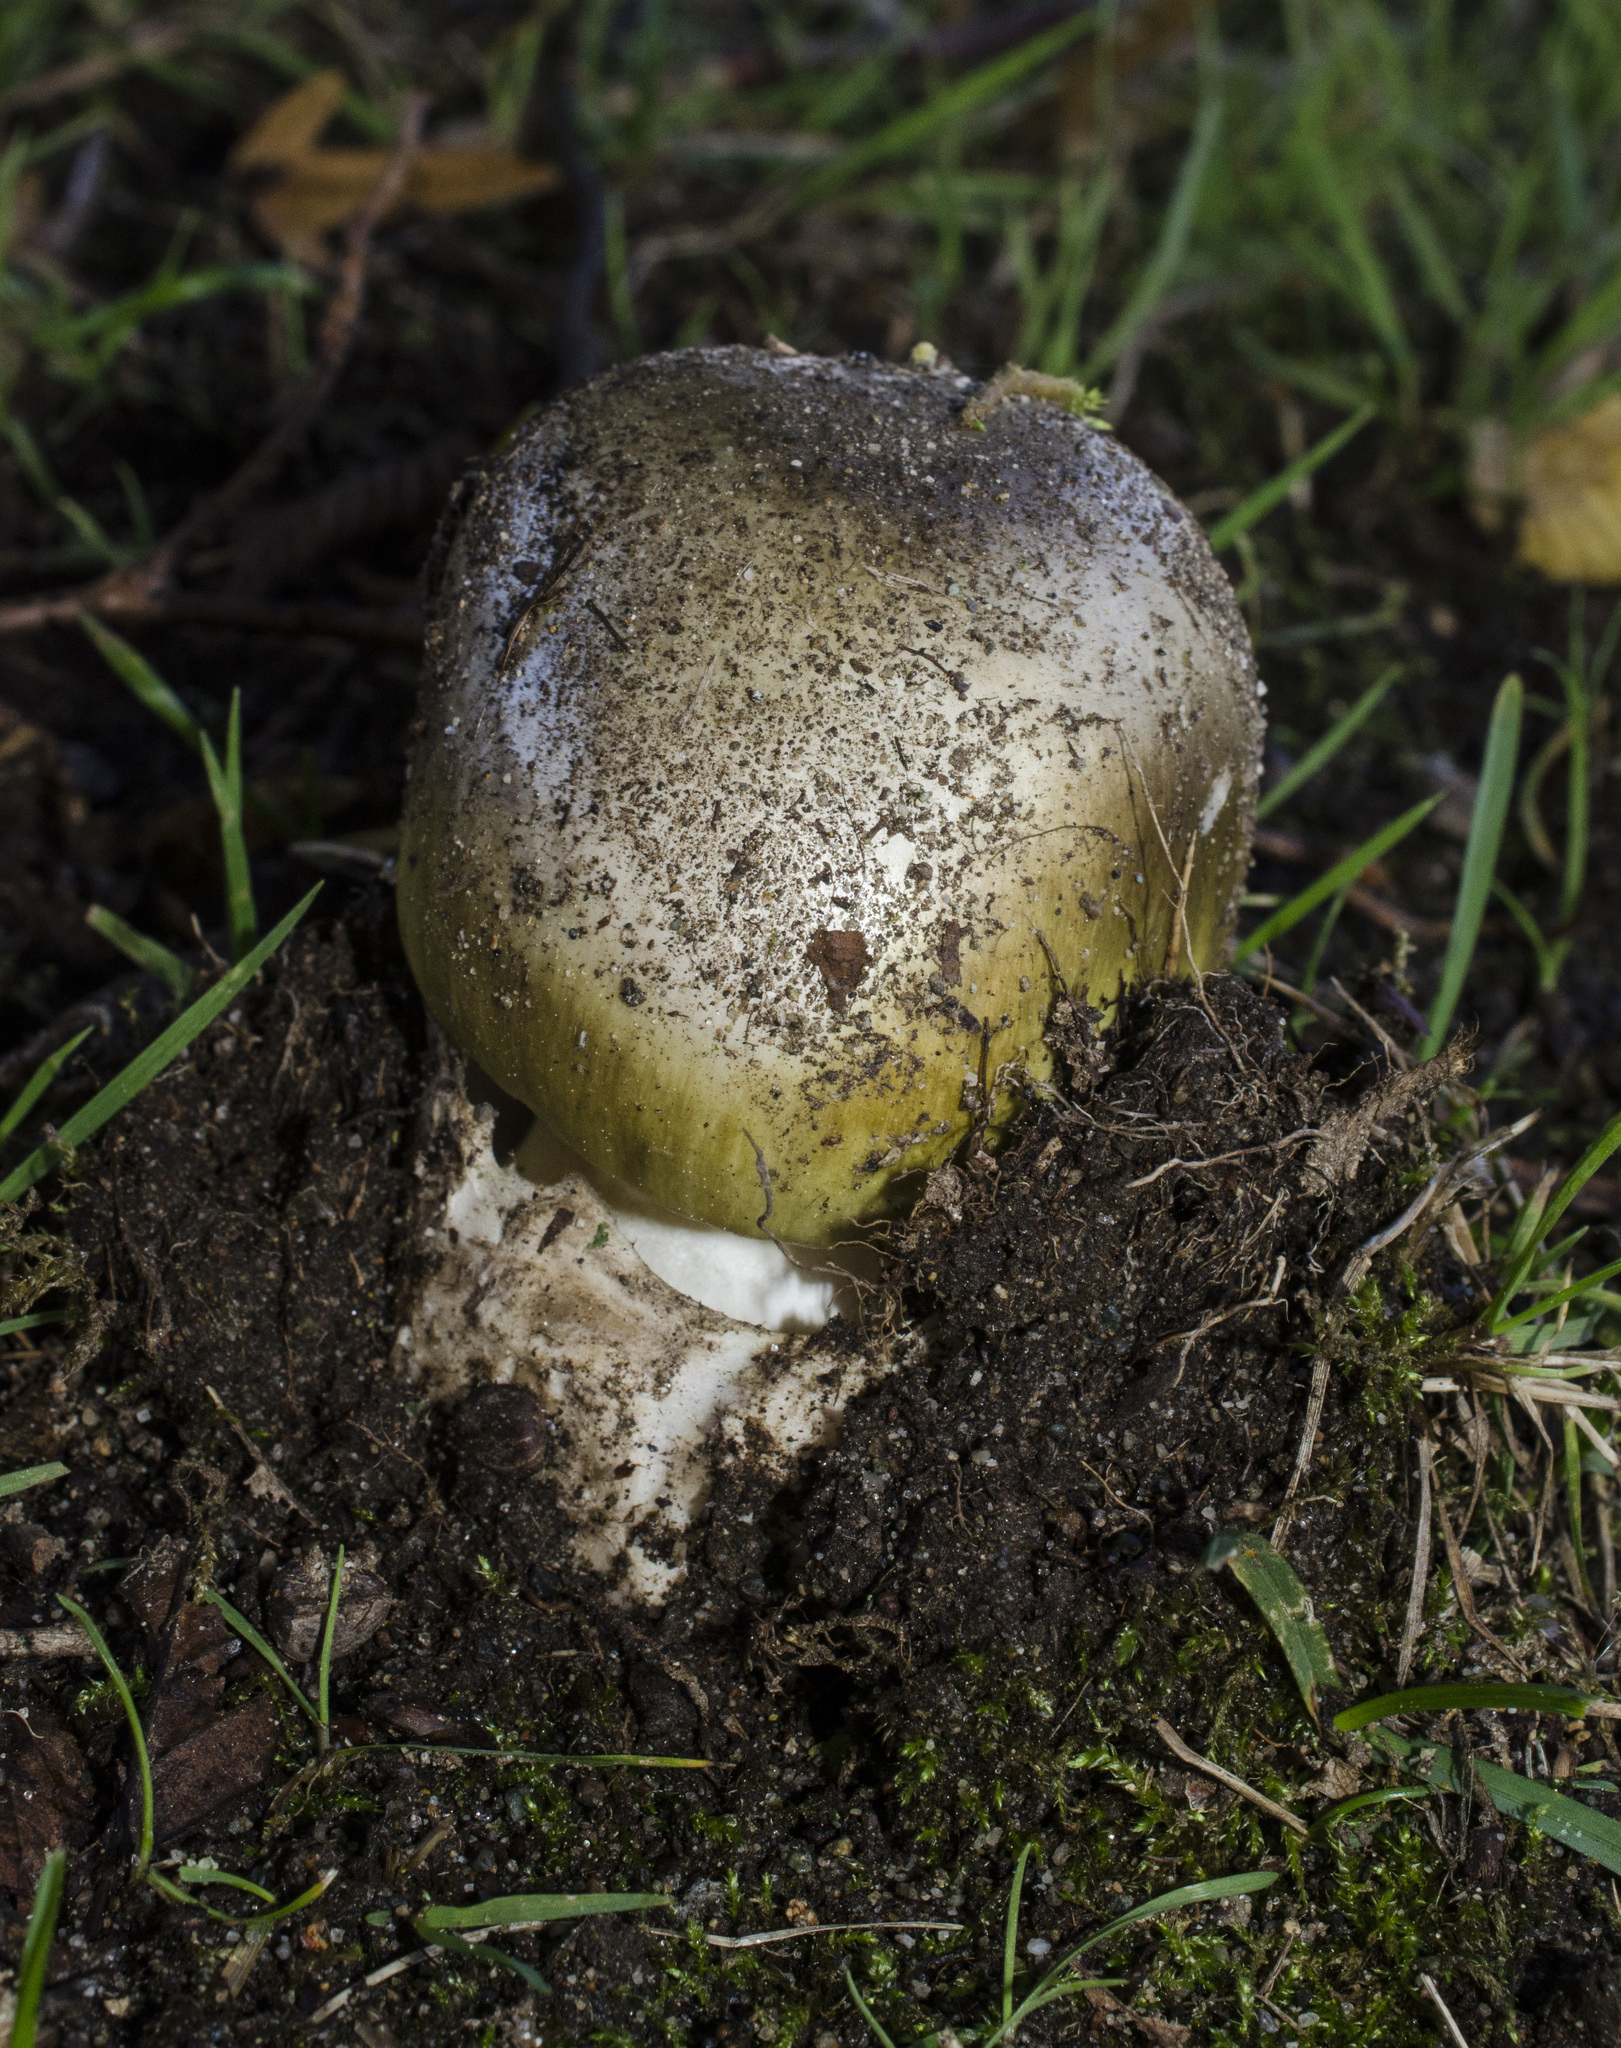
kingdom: Fungi
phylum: Basidiomycota
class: Agaricomycetes
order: Agaricales
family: Amanitaceae
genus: Amanita
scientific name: Amanita phalloides
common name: Death cap
